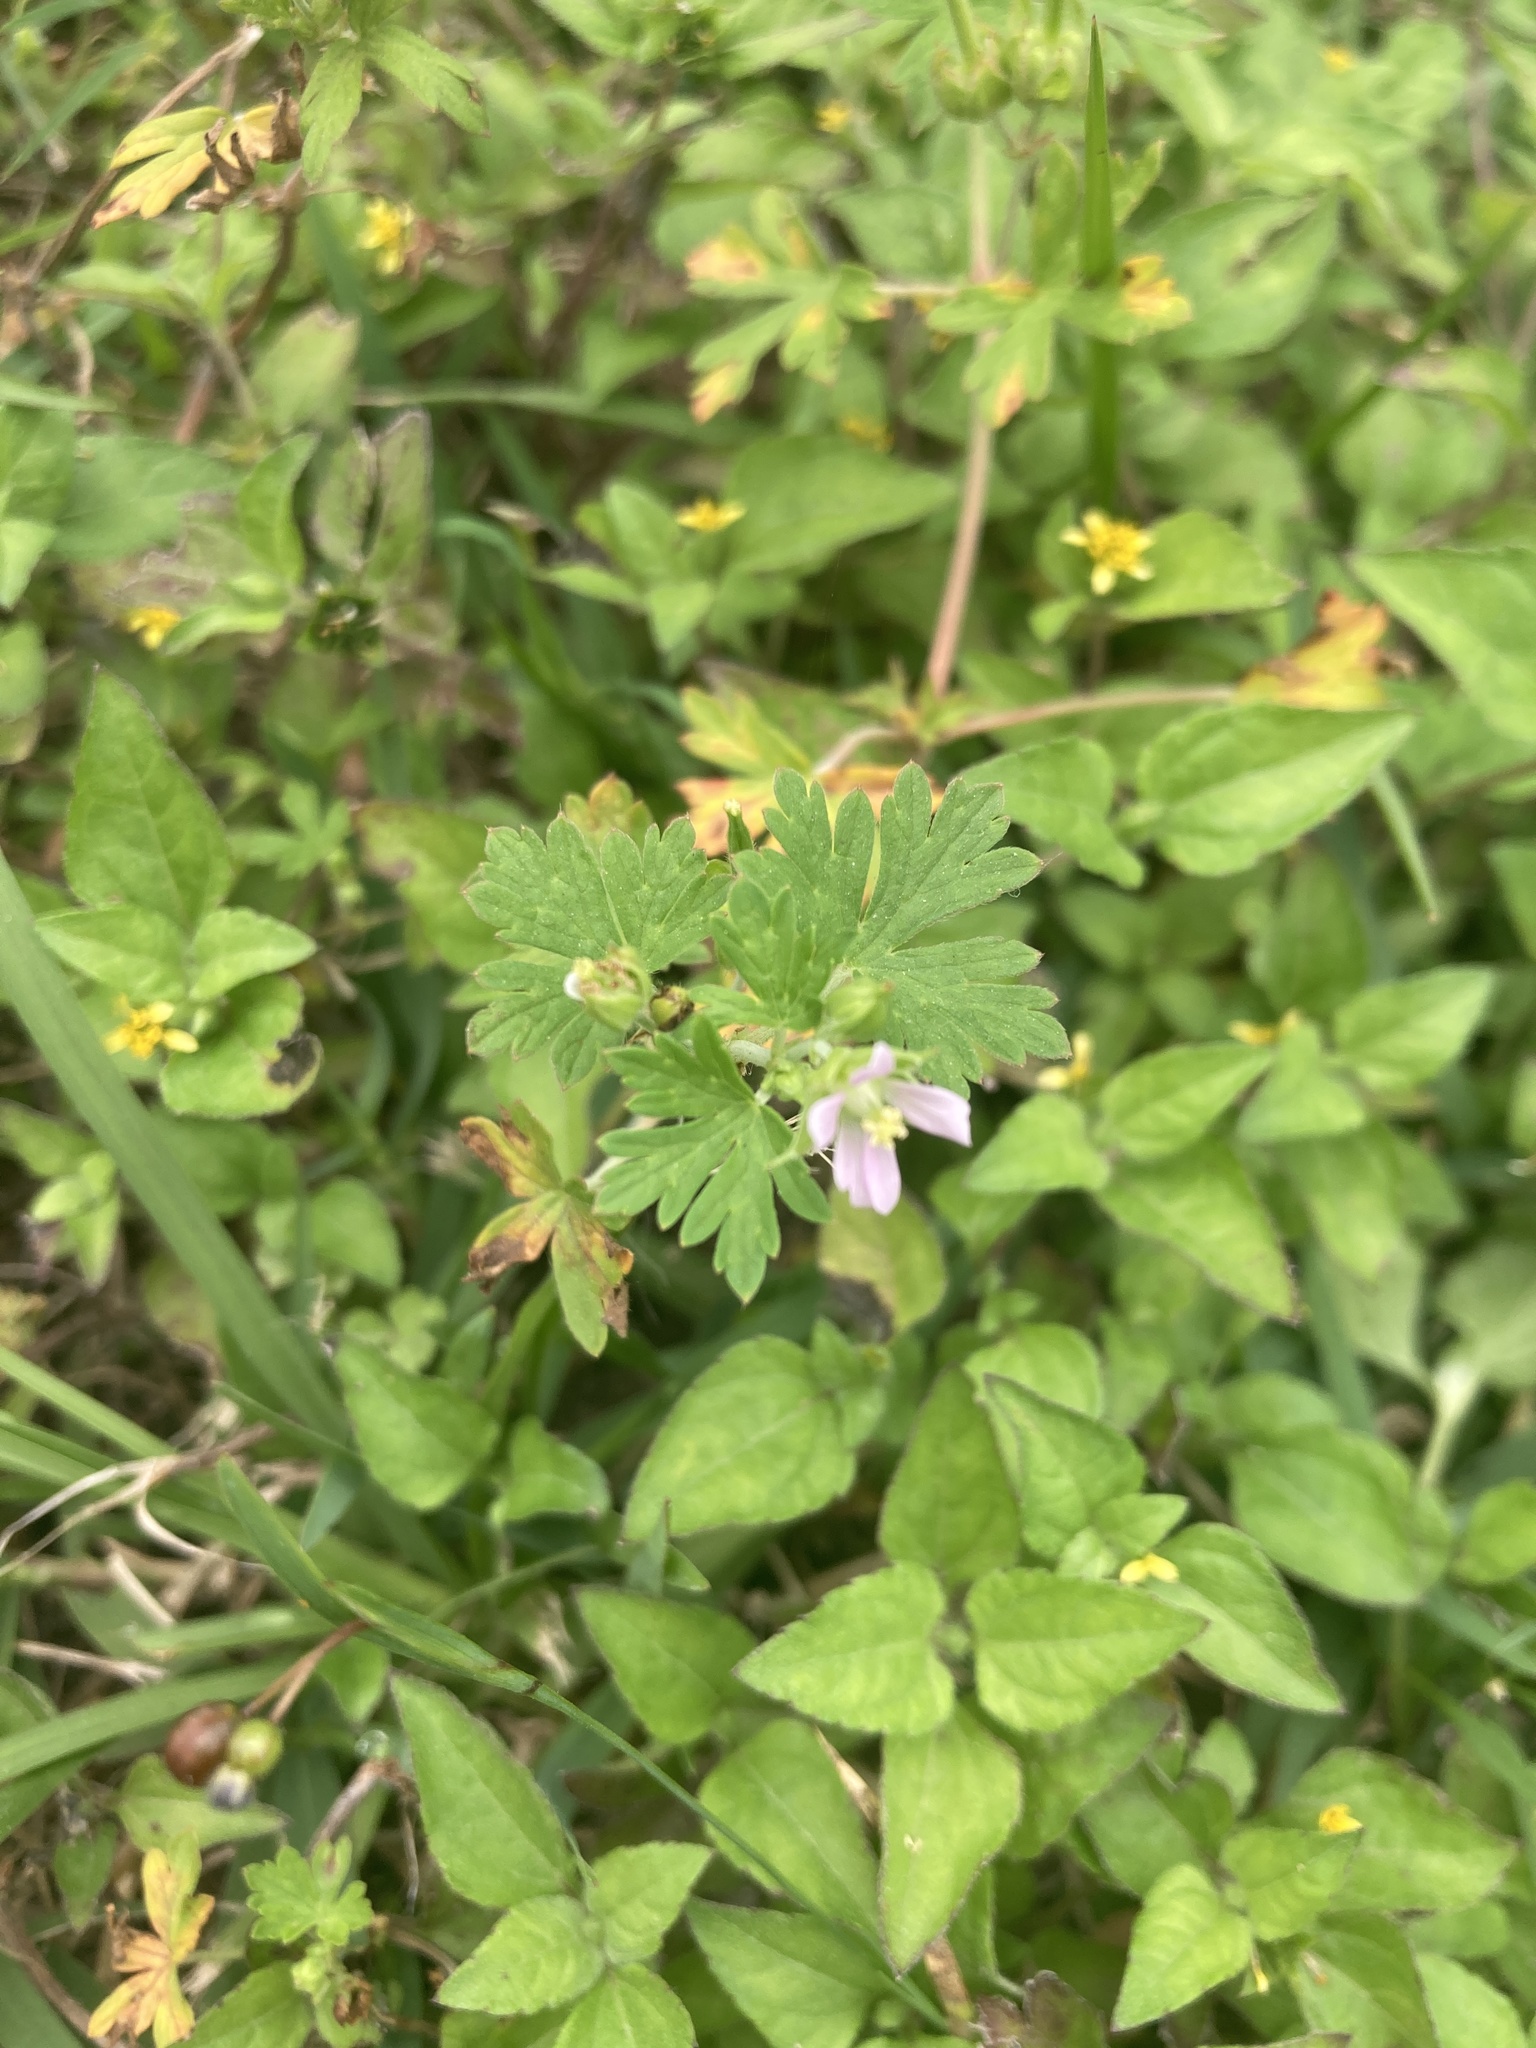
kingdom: Plantae
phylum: Tracheophyta
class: Magnoliopsida
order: Geraniales
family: Geraniaceae
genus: Geranium
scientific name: Geranium carolinianum
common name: Carolina crane's-bill
